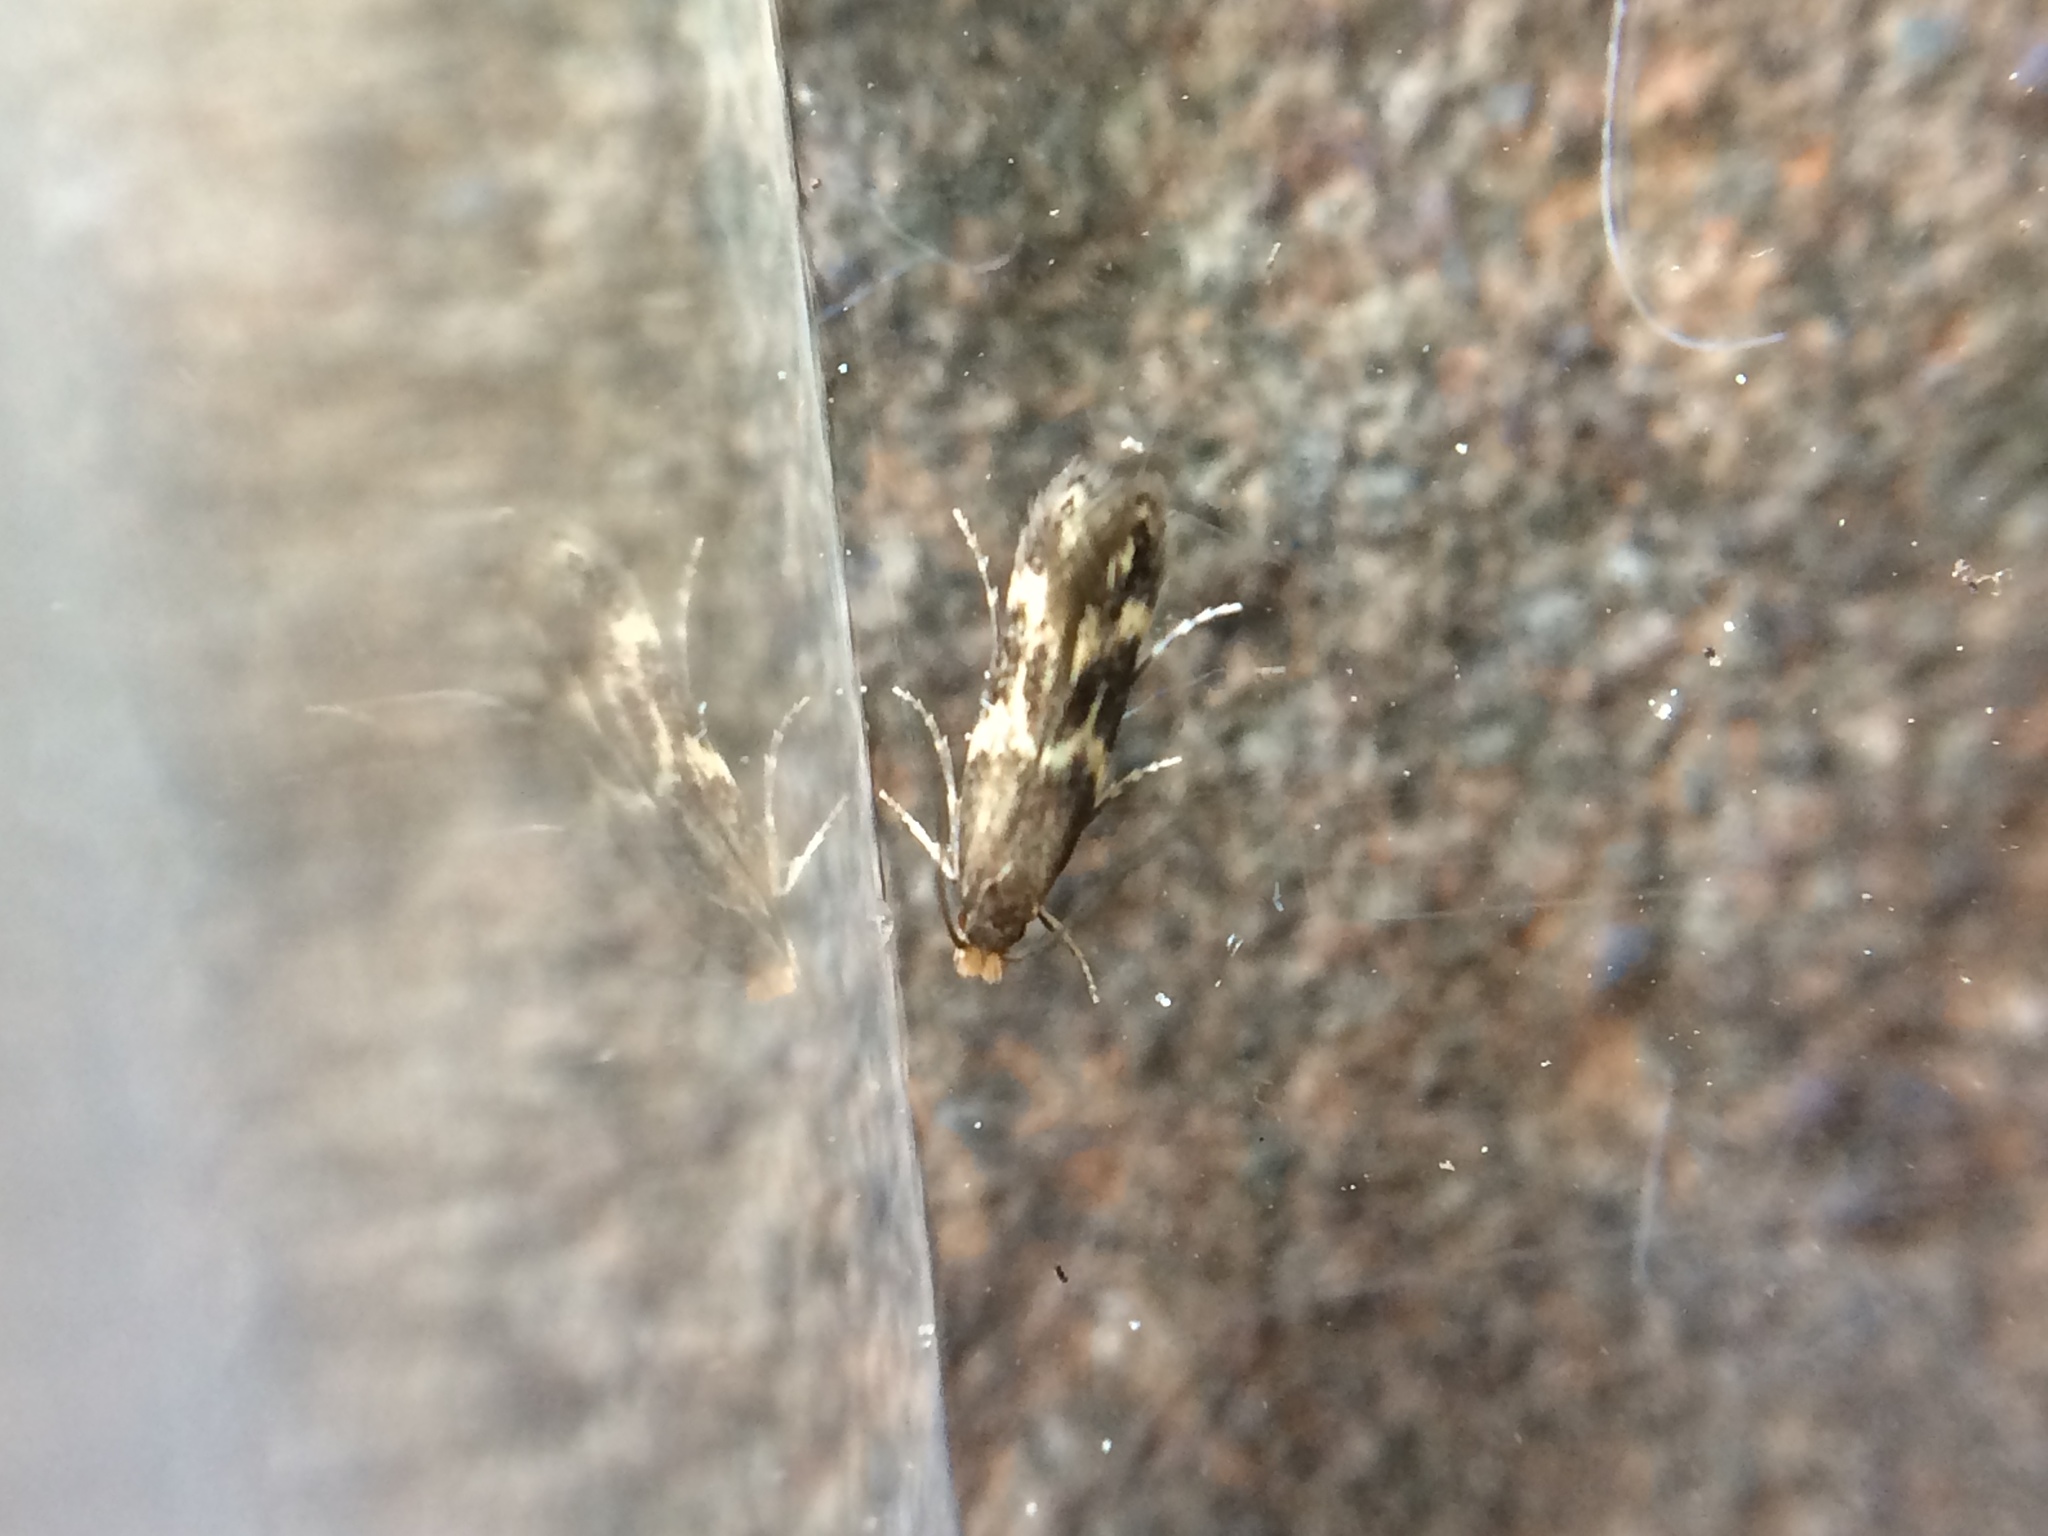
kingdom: Animalia
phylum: Arthropoda
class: Insecta
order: Lepidoptera
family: Tineidae
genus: Oinophila
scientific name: Oinophila v-flava
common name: Yellow v moth
